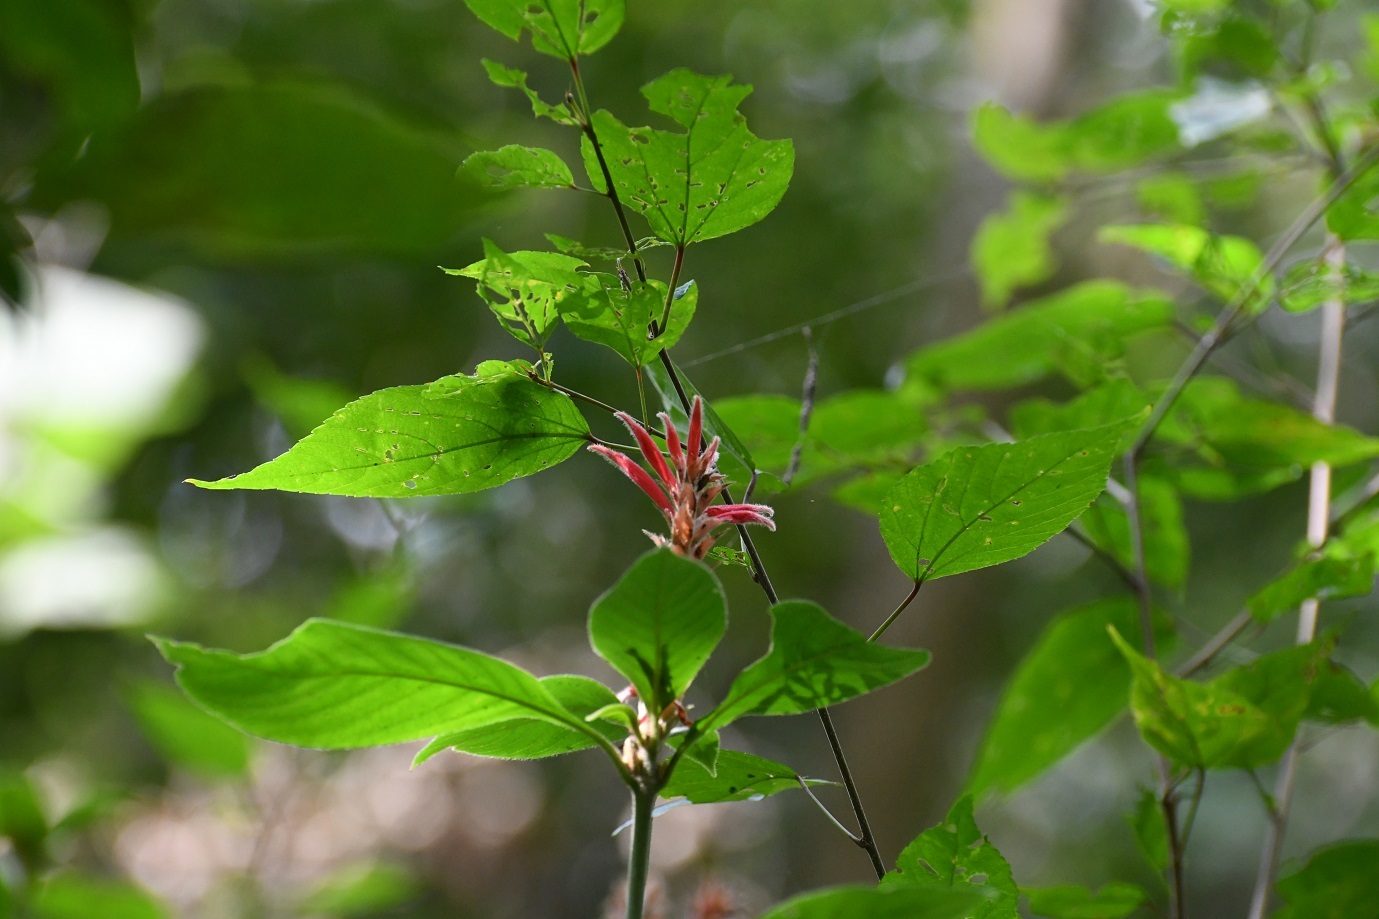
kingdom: Plantae
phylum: Tracheophyta
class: Magnoliopsida
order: Lamiales
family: Acanthaceae
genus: Aphelandra
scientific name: Aphelandra scabra
